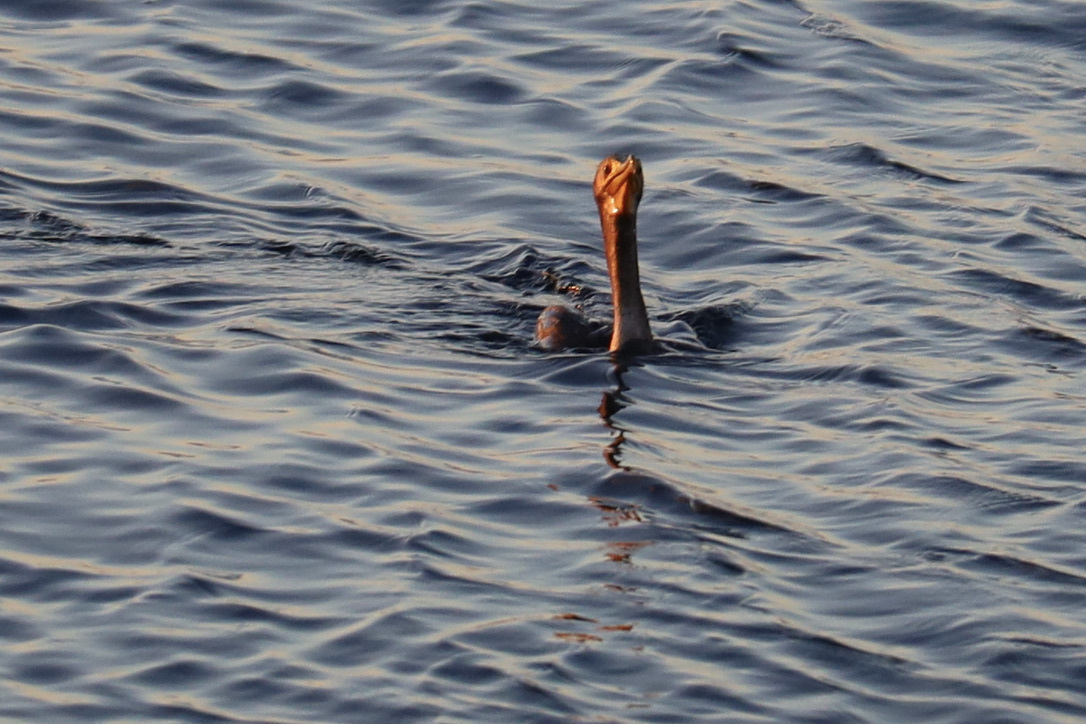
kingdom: Animalia
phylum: Chordata
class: Aves
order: Suliformes
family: Phalacrocoracidae
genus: Phalacrocorax
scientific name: Phalacrocorax auritus
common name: Double-crested cormorant
